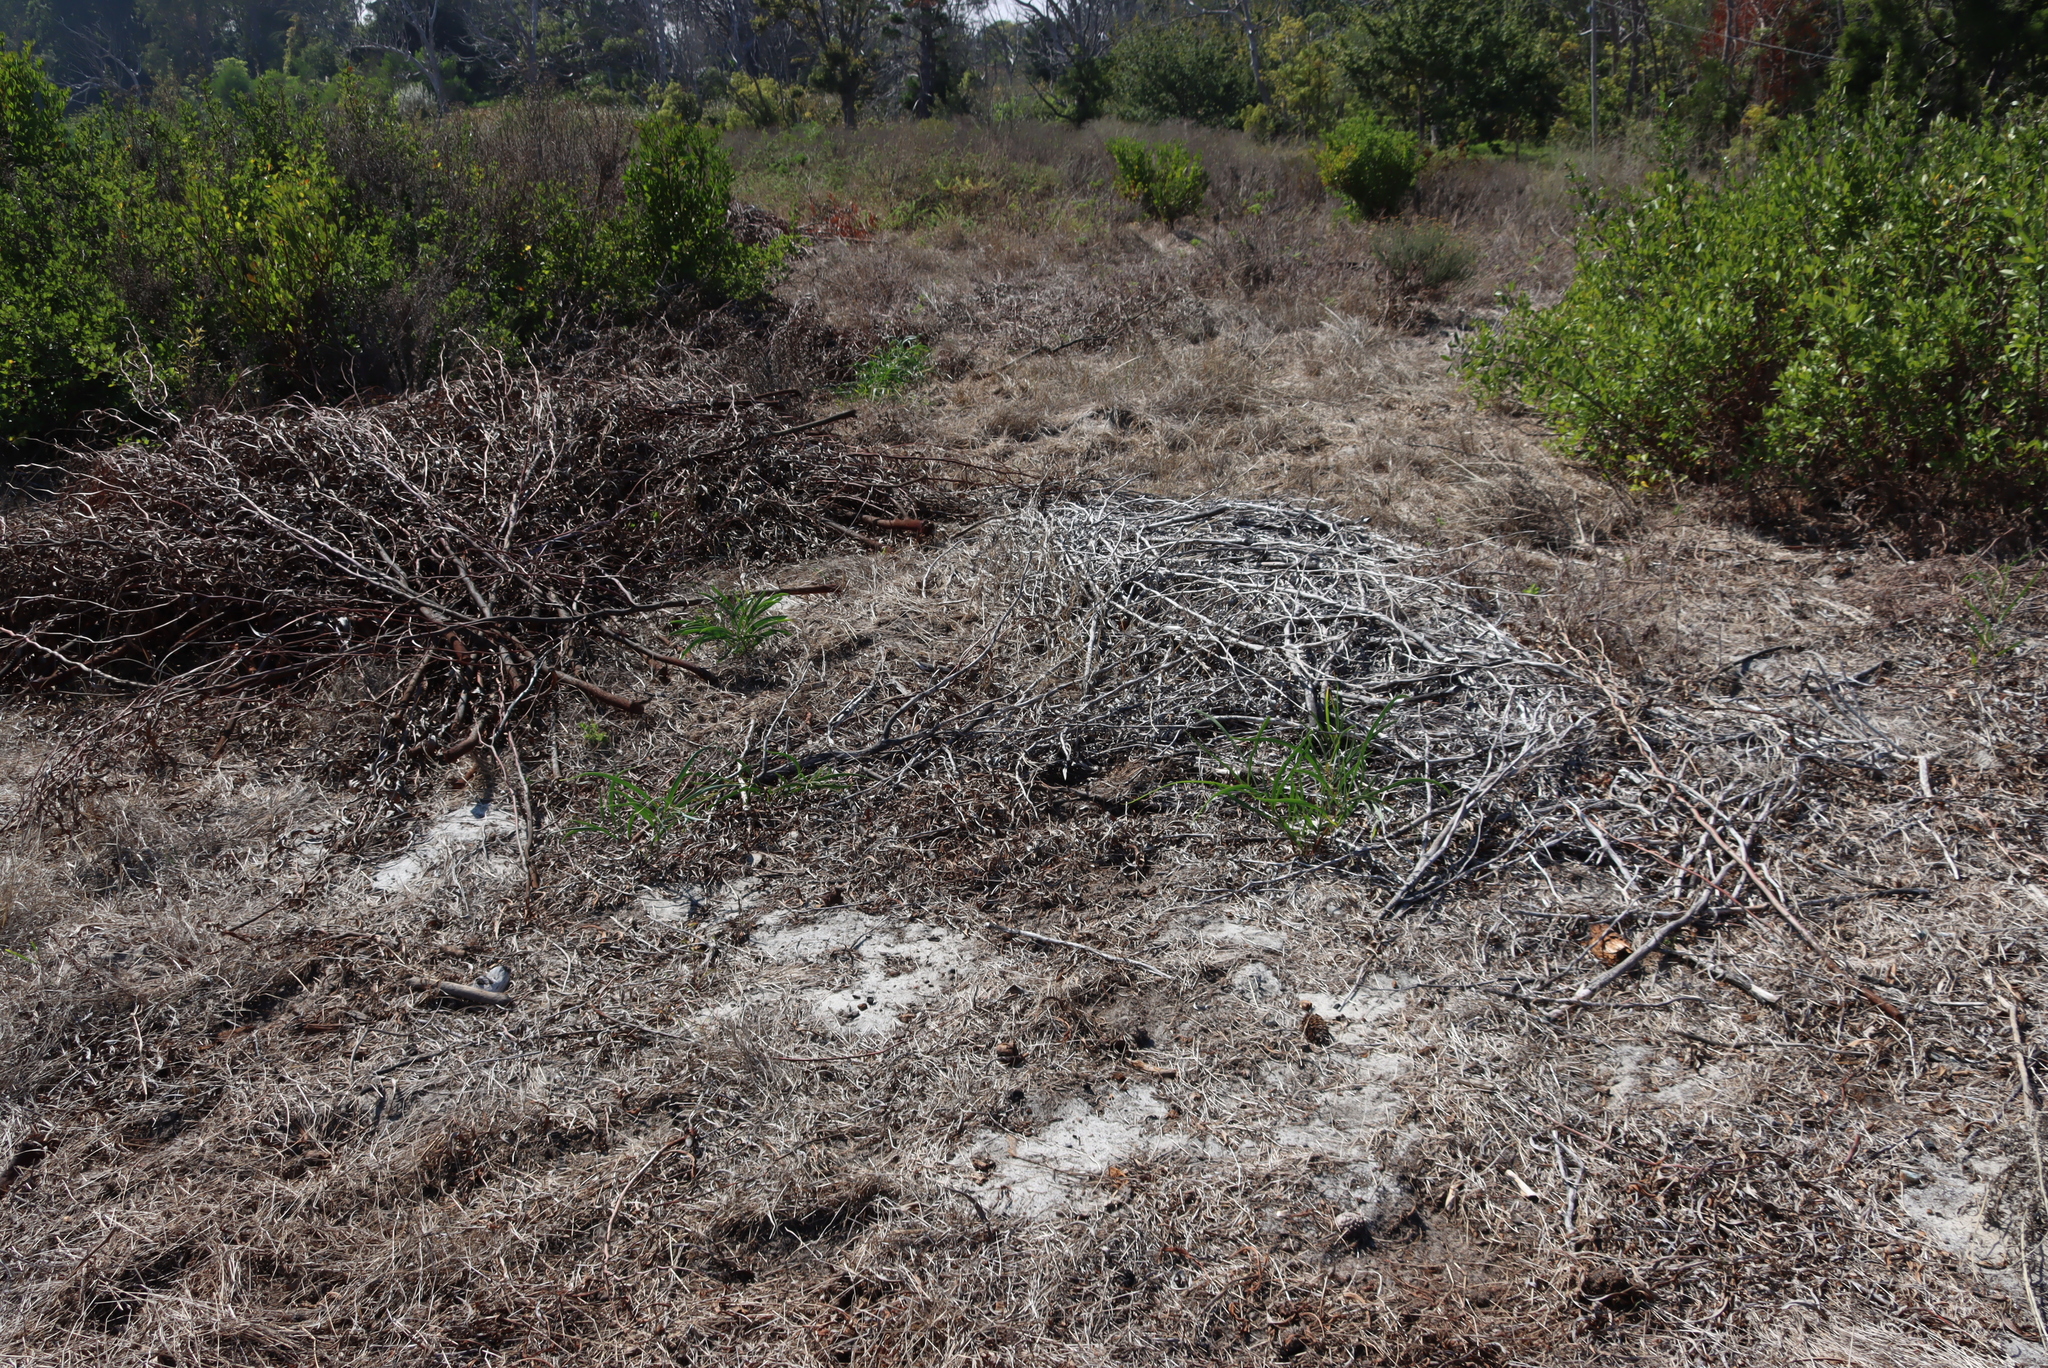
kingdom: Plantae
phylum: Tracheophyta
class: Magnoliopsida
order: Fabales
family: Fabaceae
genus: Acacia
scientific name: Acacia saligna
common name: Orange wattle
